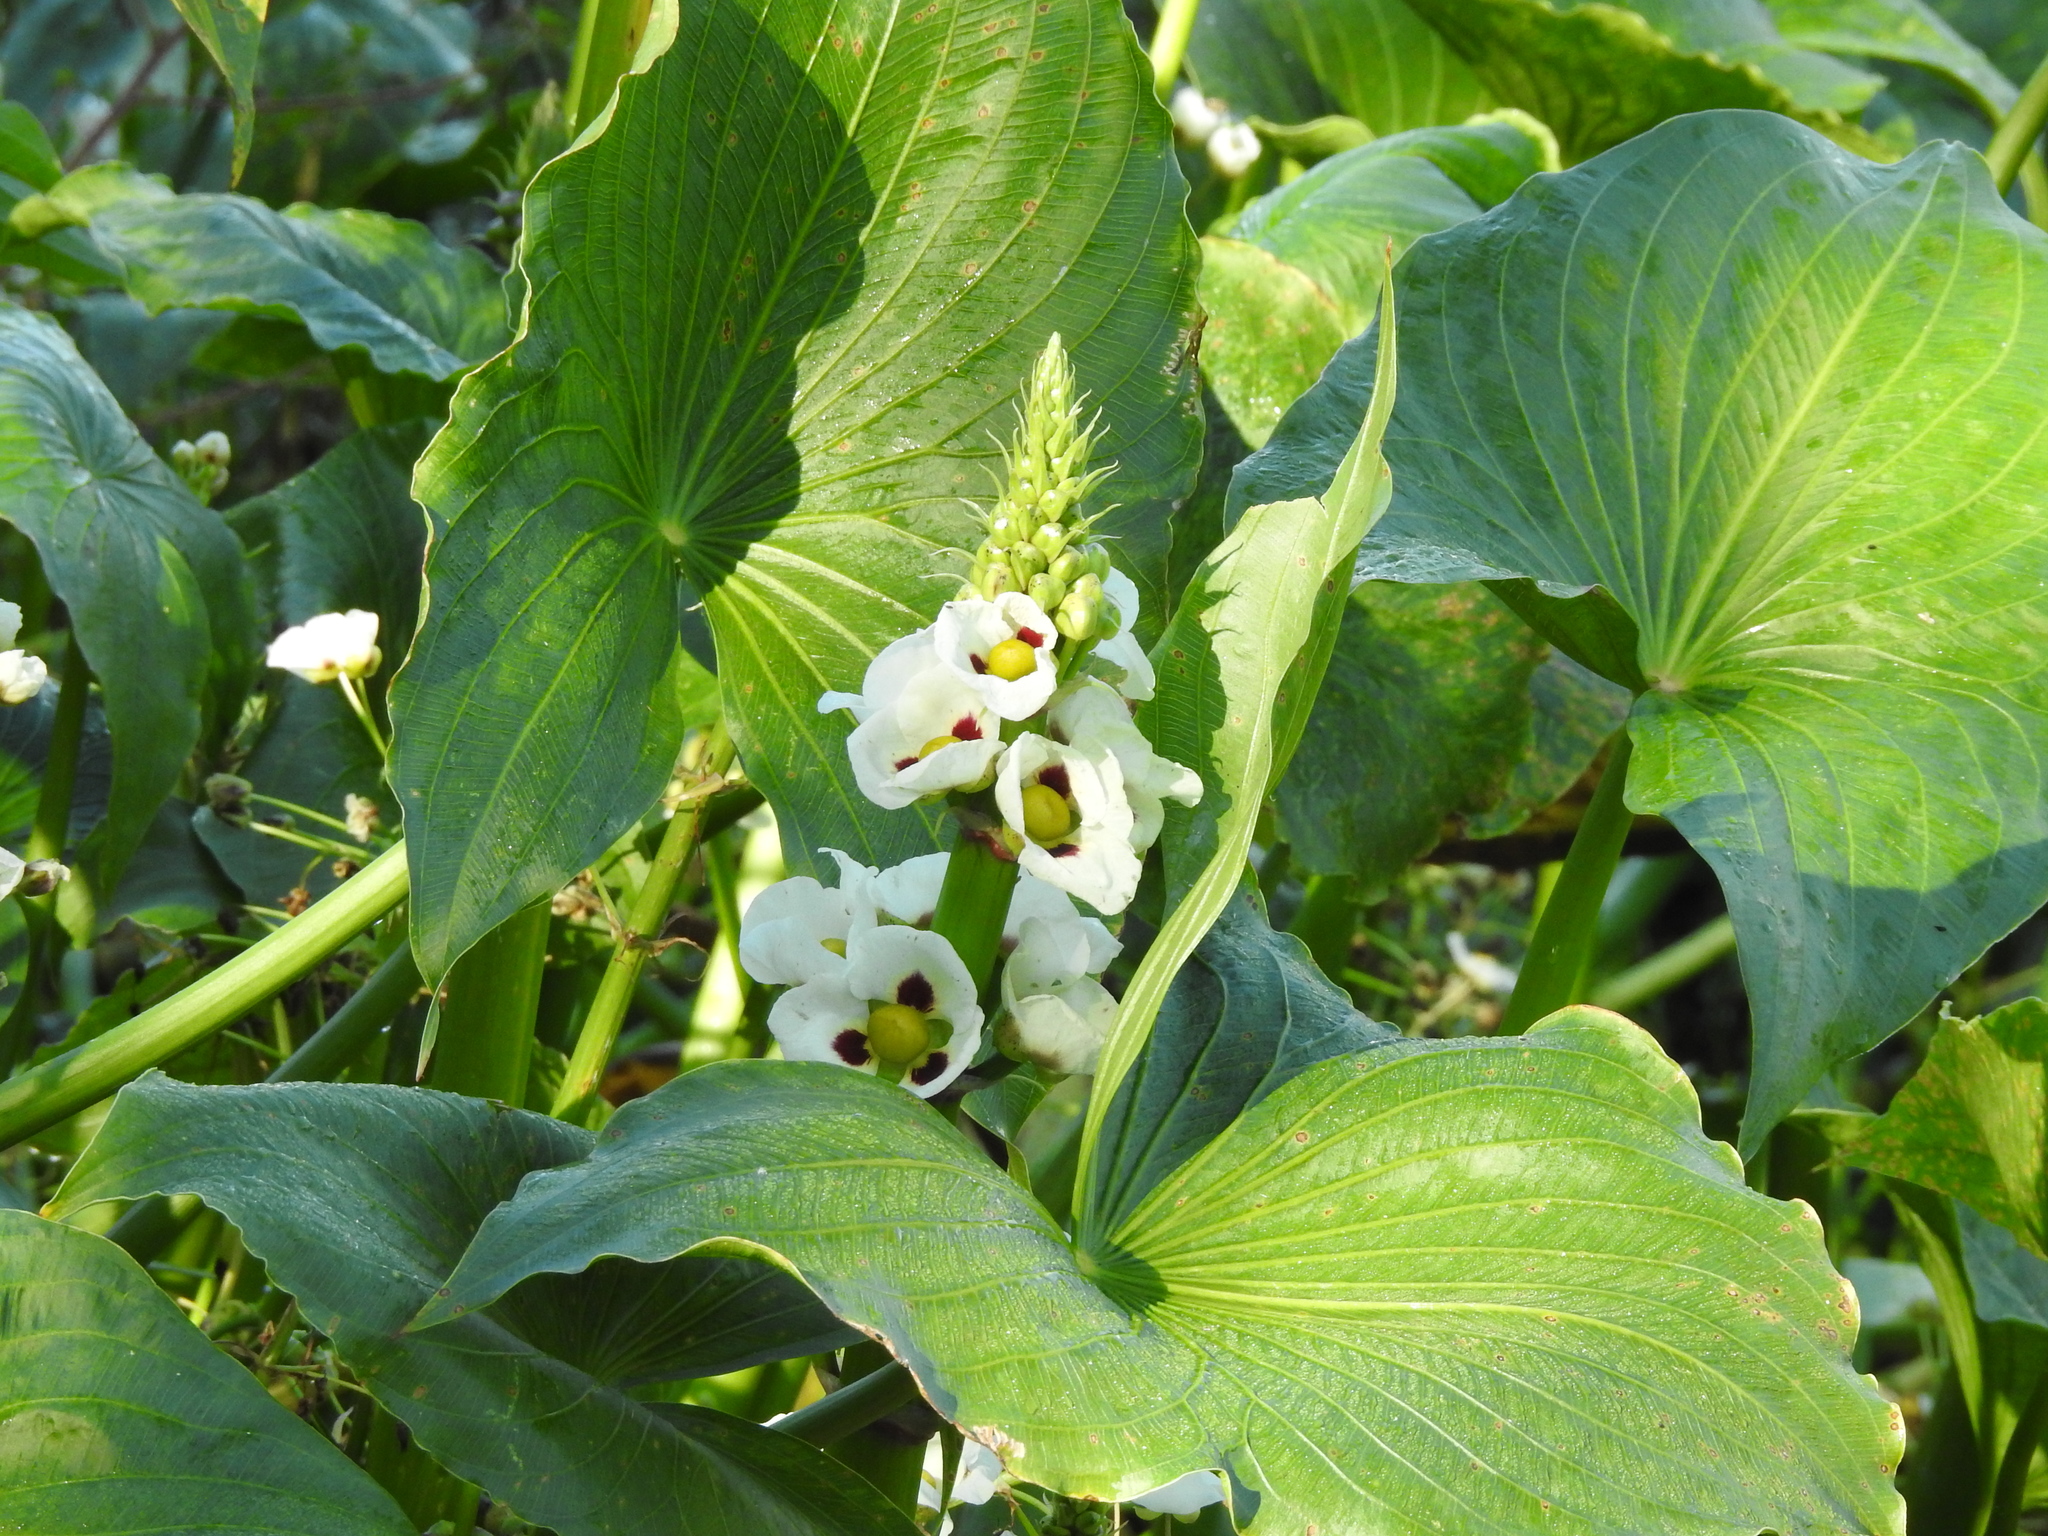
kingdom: Plantae
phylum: Tracheophyta
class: Liliopsida
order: Alismatales
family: Alismataceae
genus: Sagittaria
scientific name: Sagittaria montevidensis
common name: Giant arrowhead
